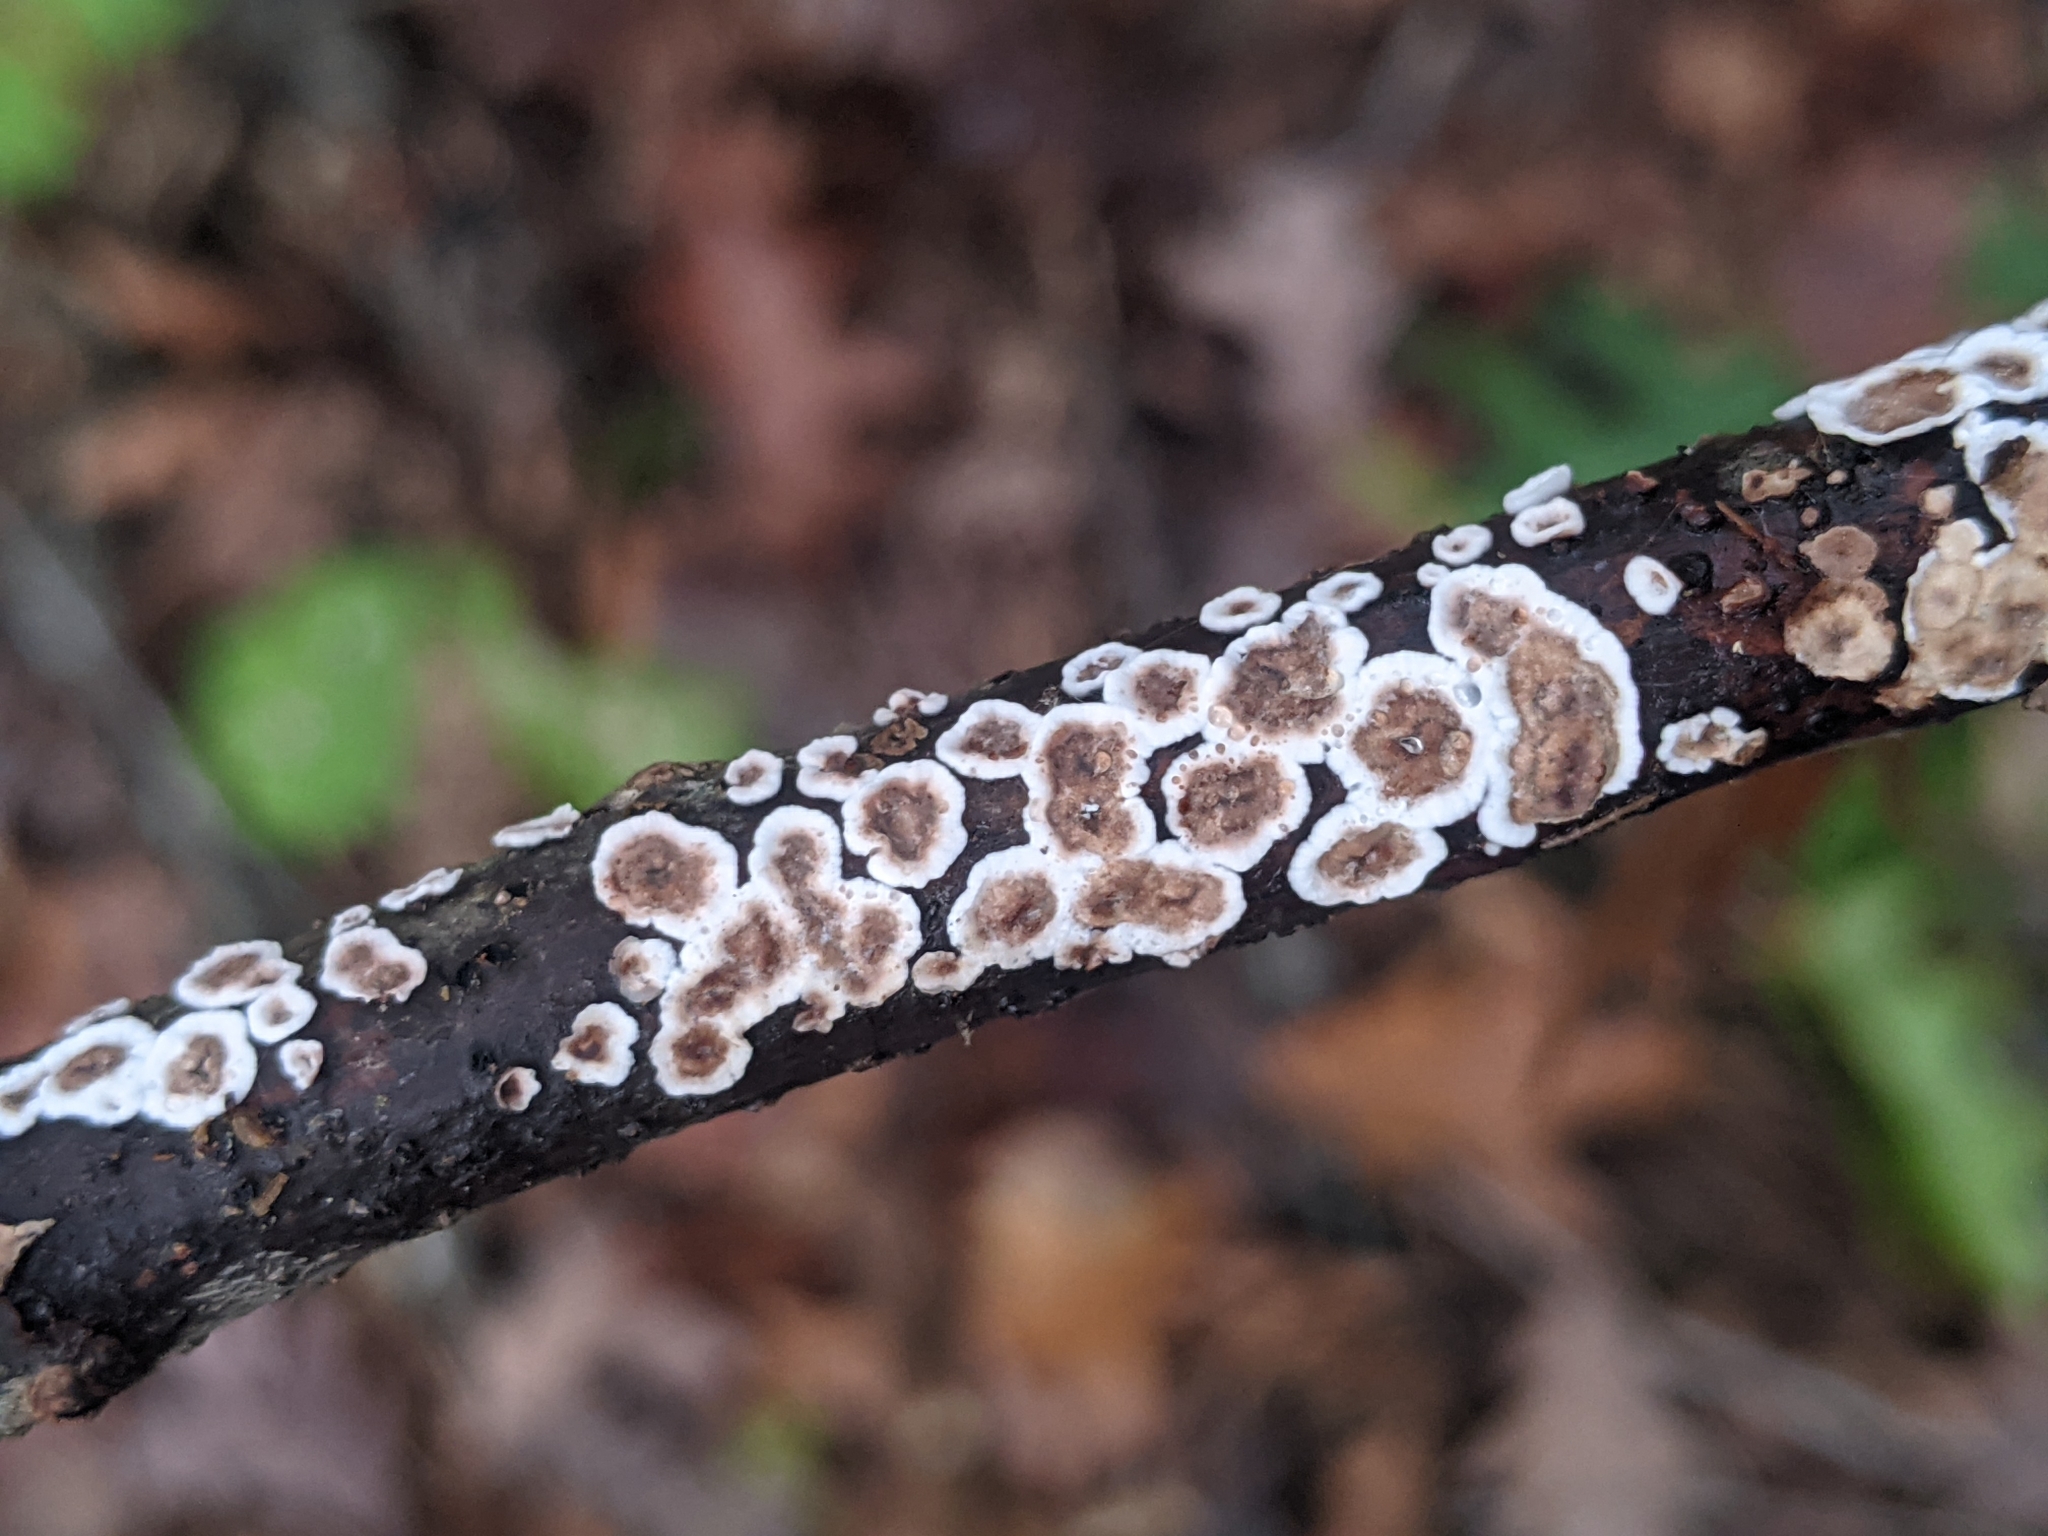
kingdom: Fungi
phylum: Basidiomycota
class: Agaricomycetes
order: Russulales
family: Peniophoraceae
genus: Peniophora
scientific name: Peniophora albobadia
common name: Giraffe spots
